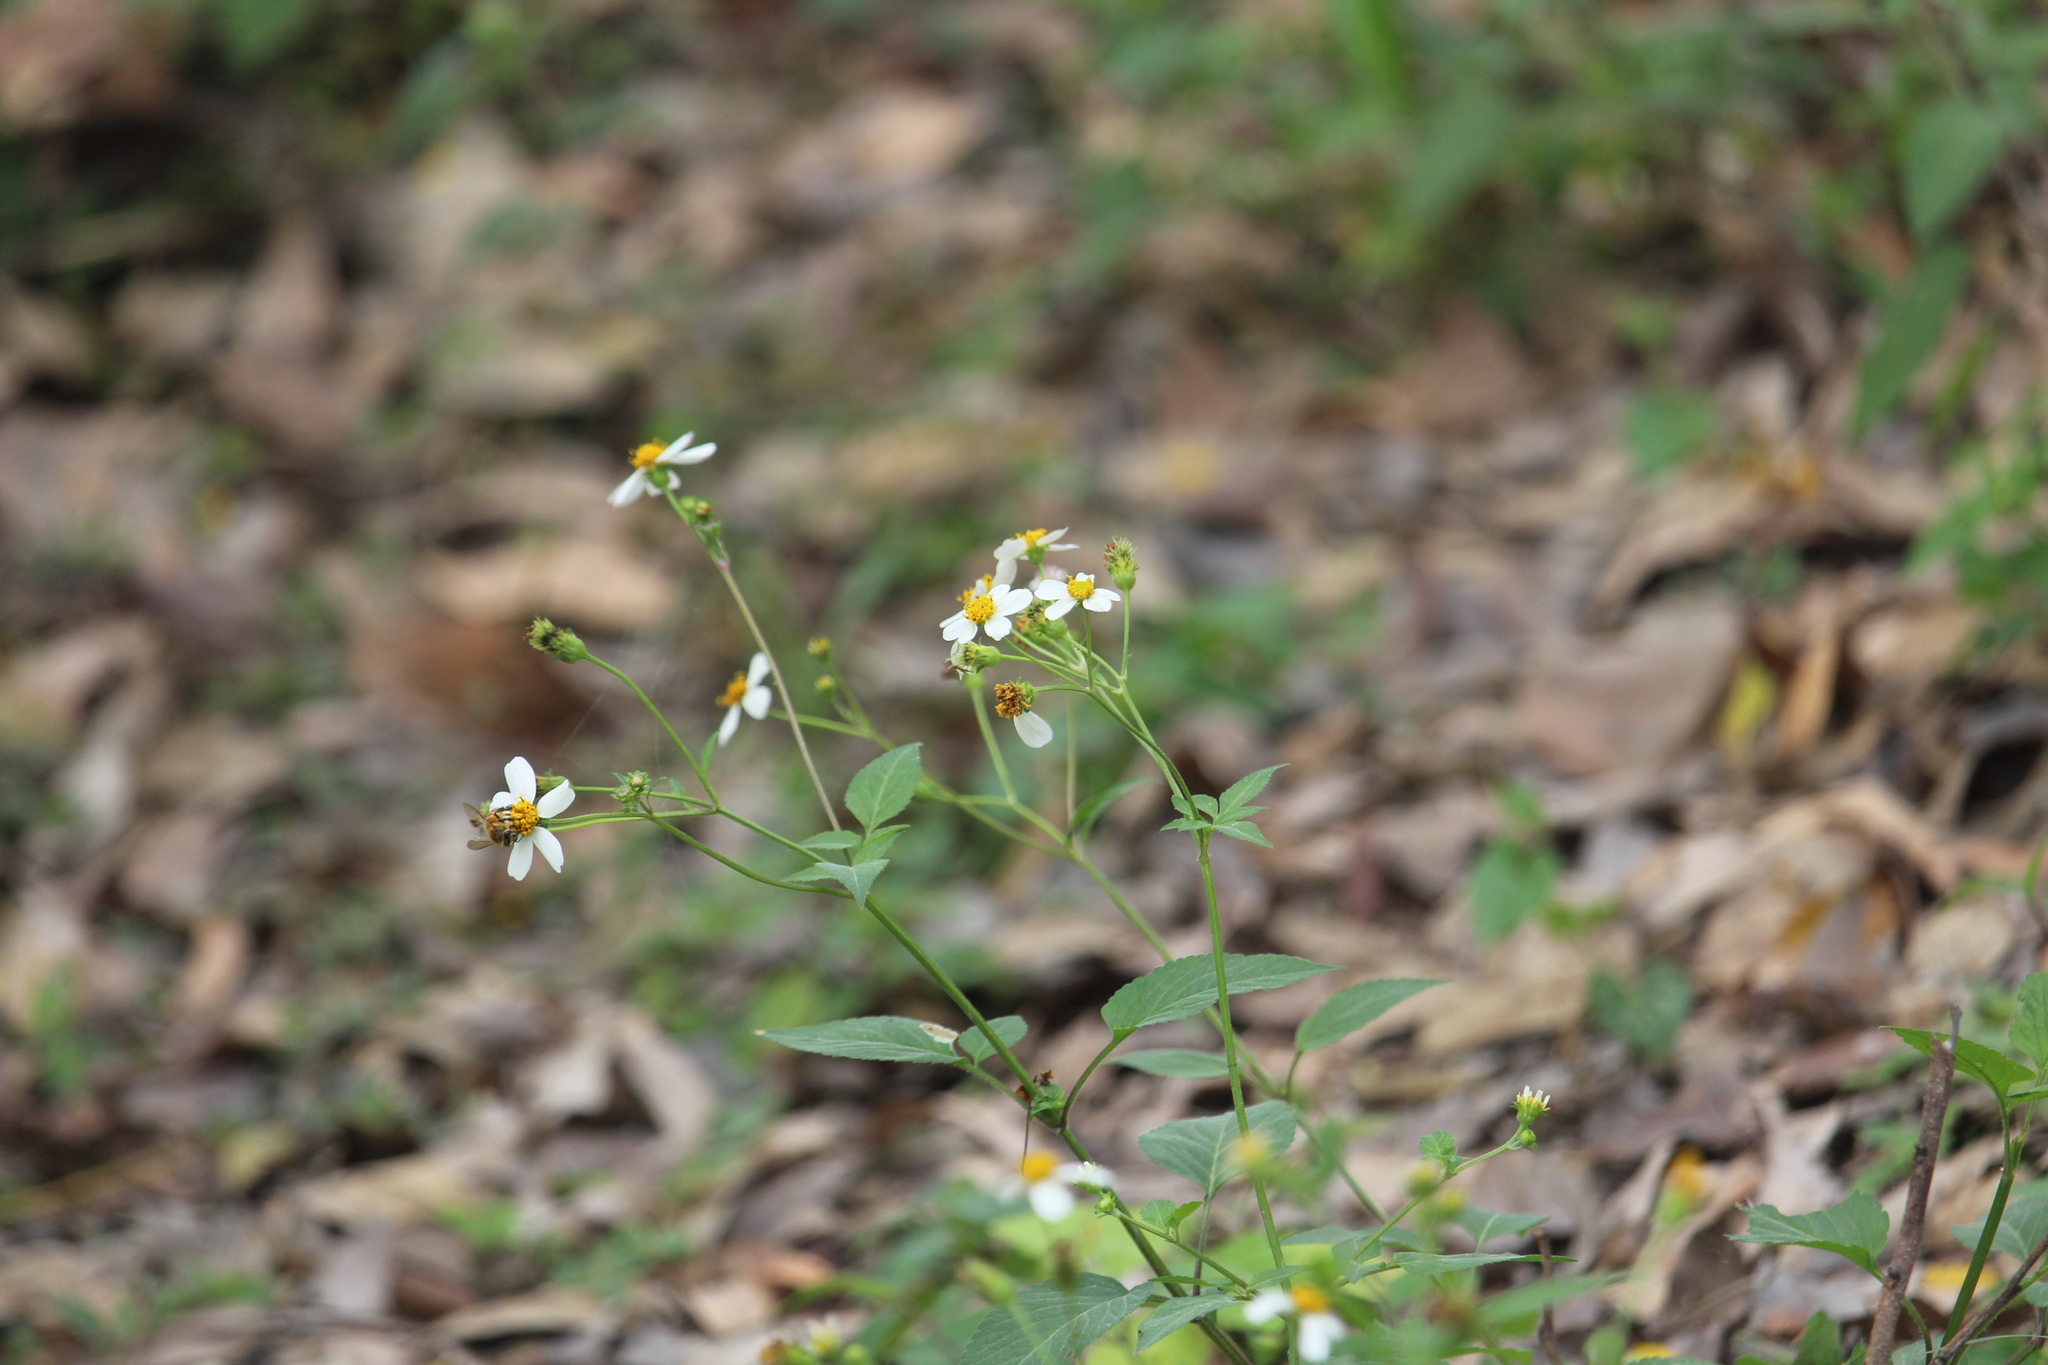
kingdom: Plantae
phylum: Tracheophyta
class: Magnoliopsida
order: Asterales
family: Asteraceae
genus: Bidens
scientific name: Bidens alba
